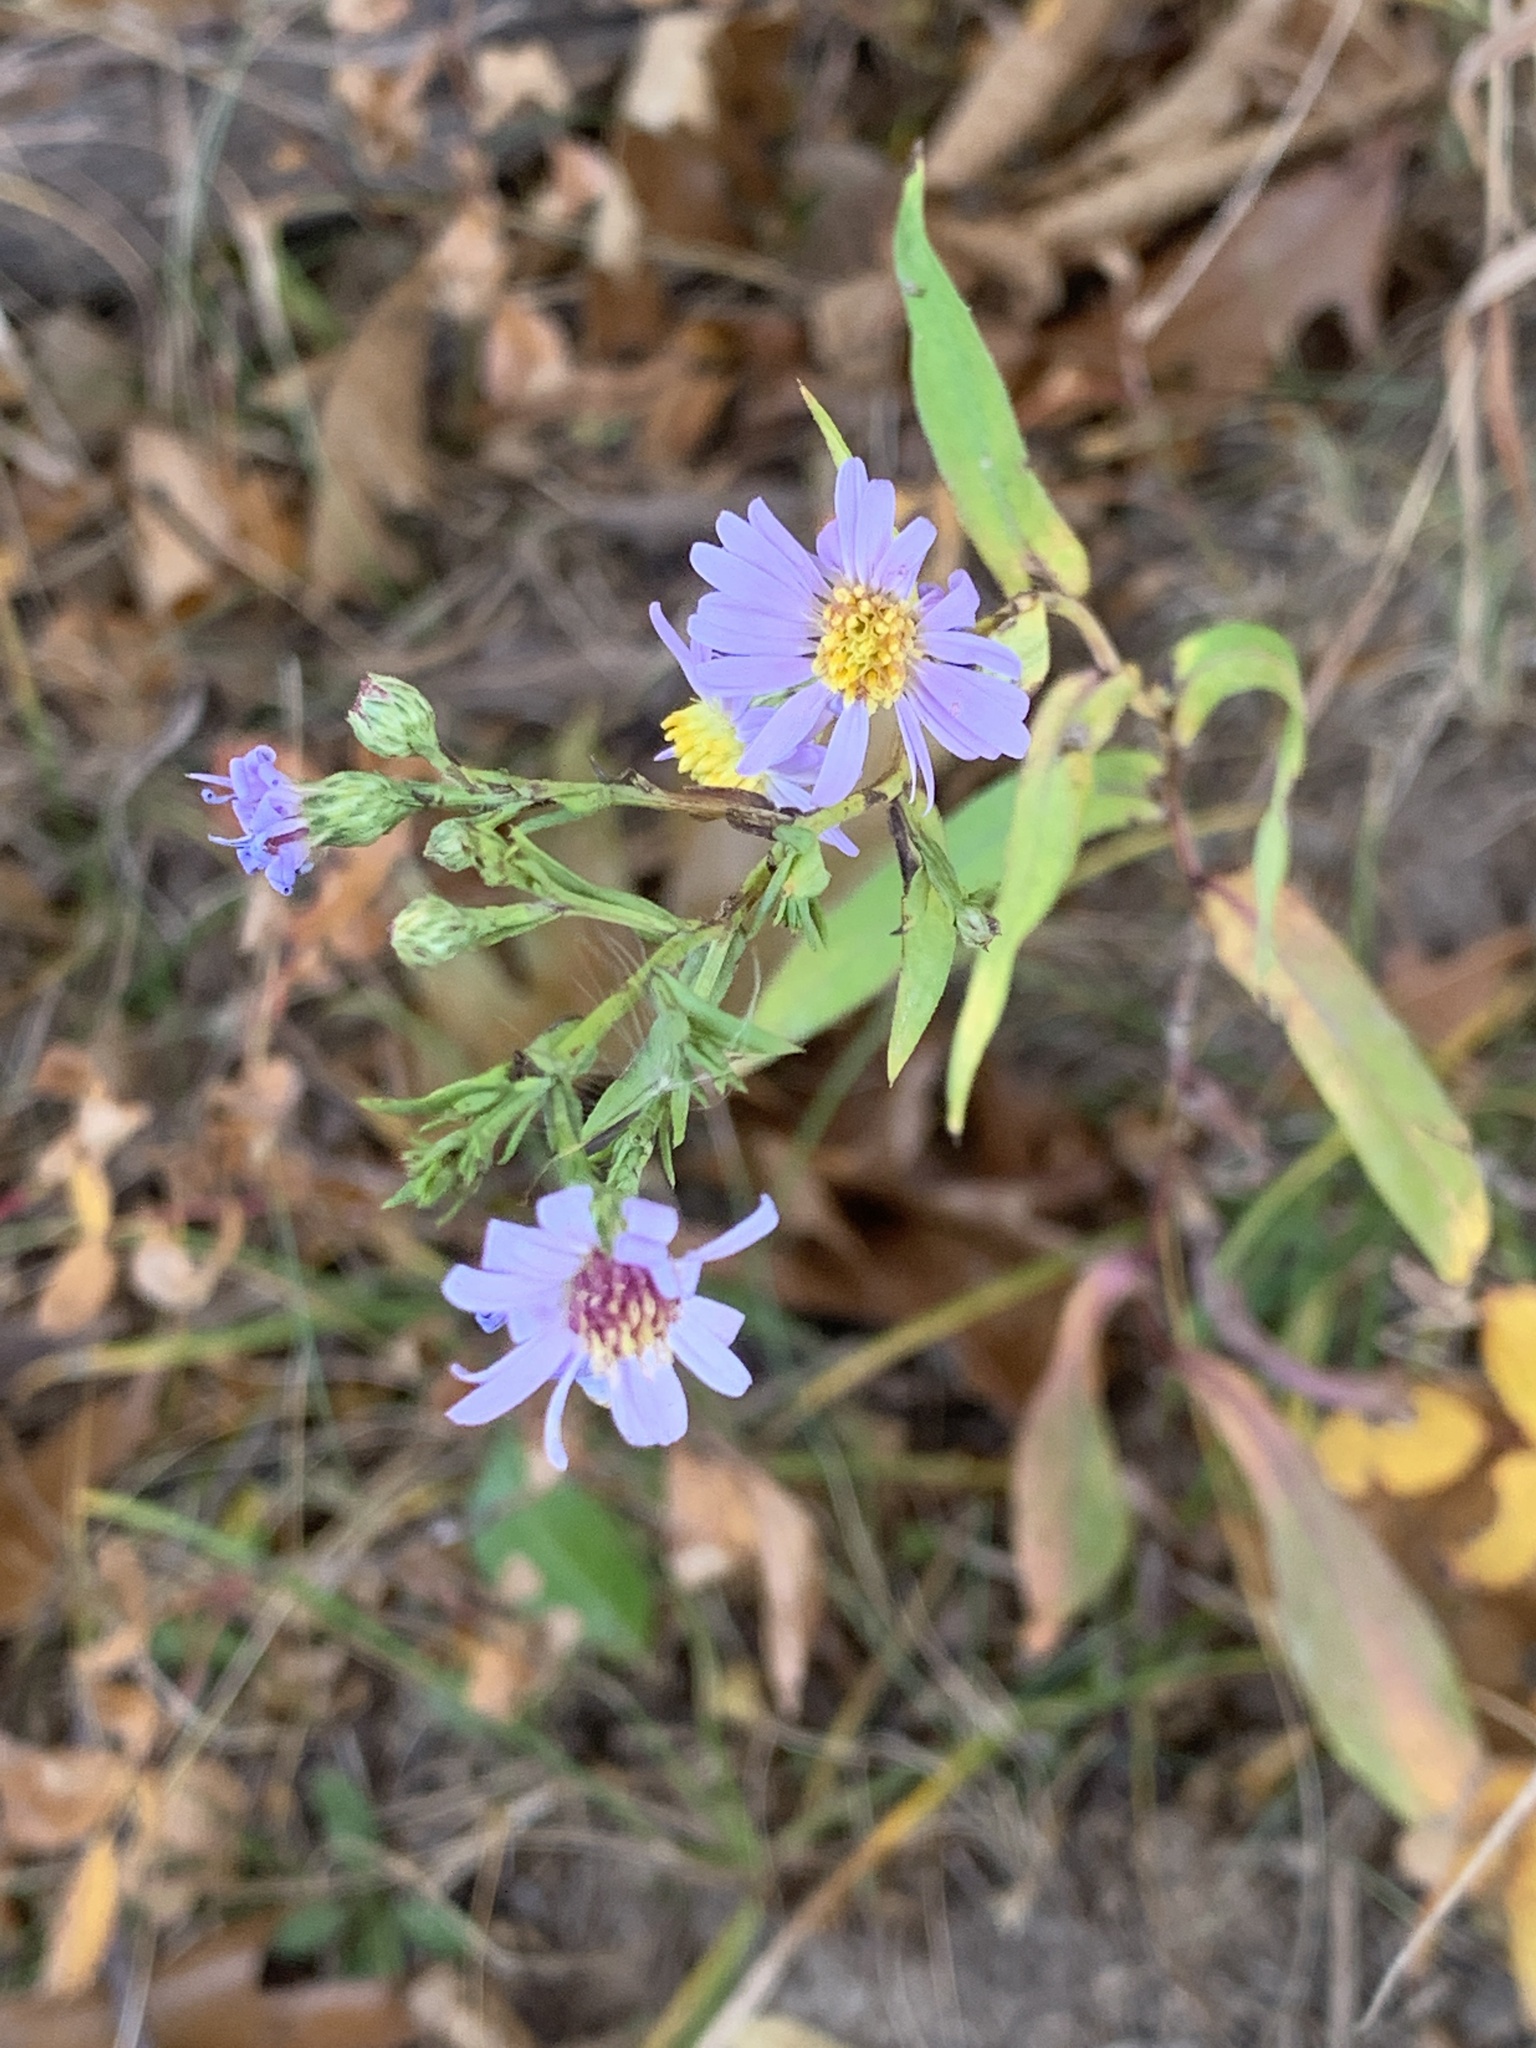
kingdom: Plantae
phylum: Tracheophyta
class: Magnoliopsida
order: Asterales
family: Asteraceae
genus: Symphyotrichum
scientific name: Symphyotrichum laeve
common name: Glaucous aster
